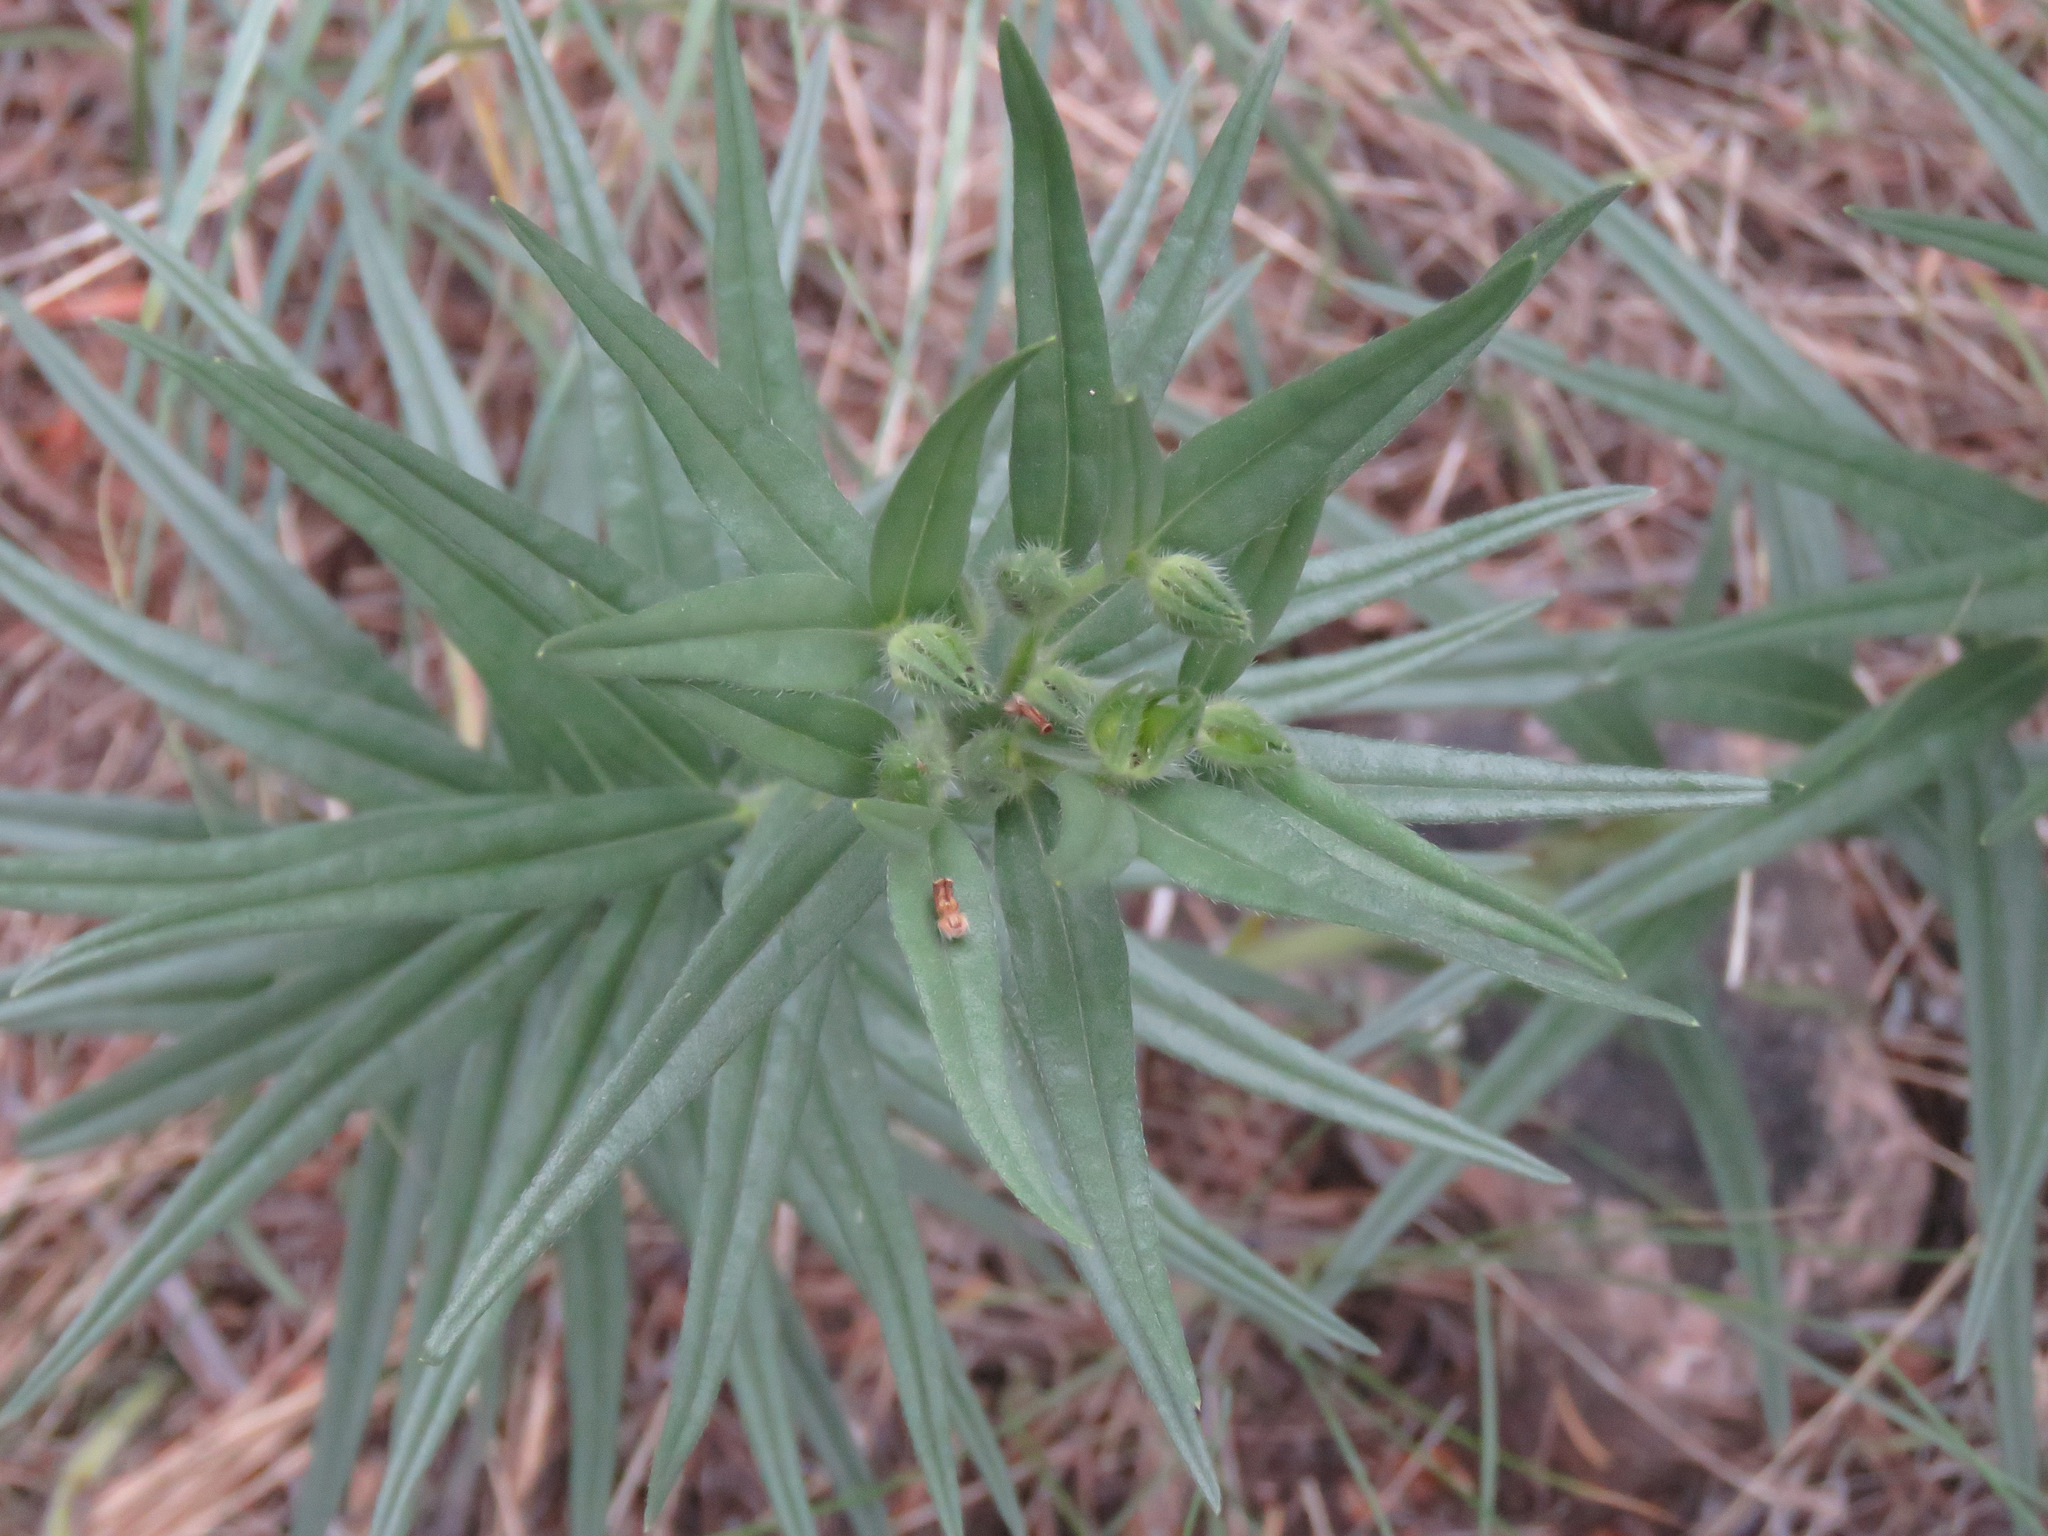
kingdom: Plantae
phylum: Tracheophyta
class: Magnoliopsida
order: Boraginales
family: Boraginaceae
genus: Lithospermum
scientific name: Lithospermum ruderale
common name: Western gromwell
